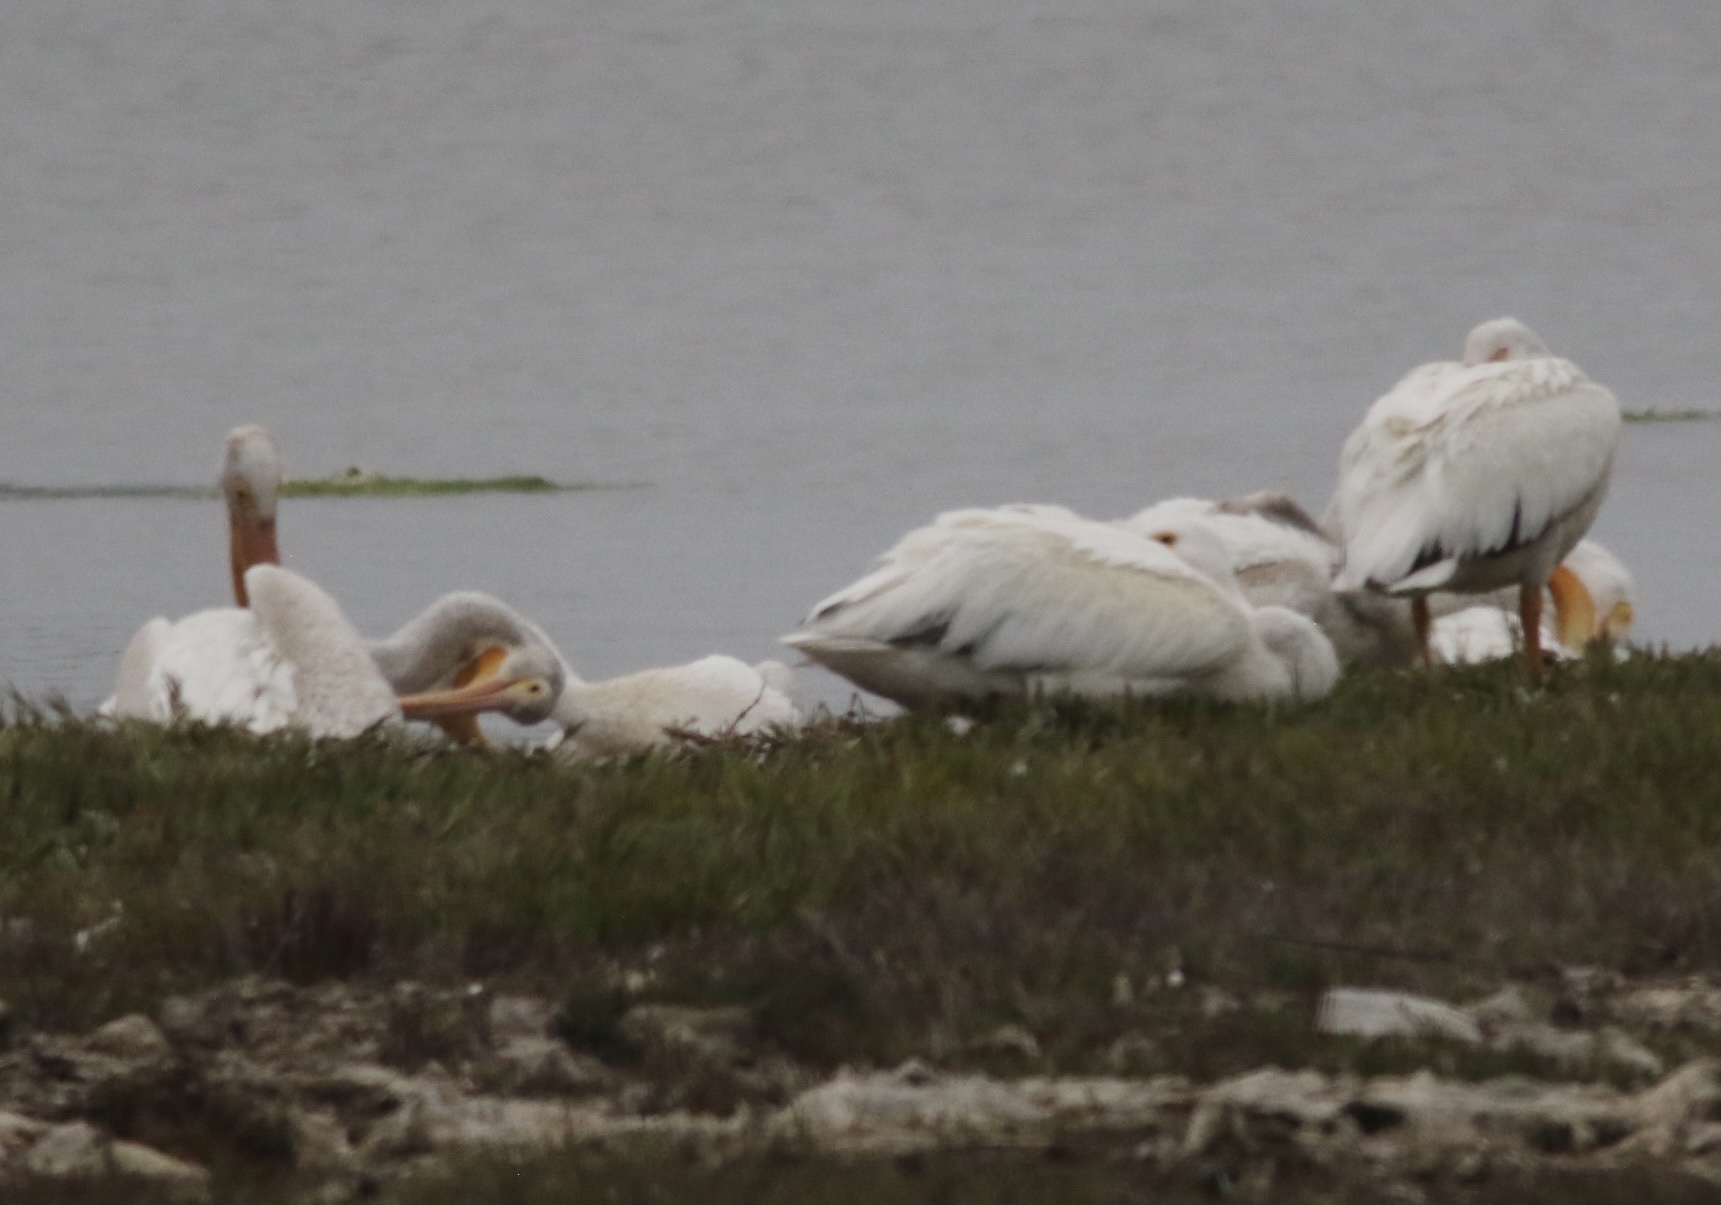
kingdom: Animalia
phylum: Chordata
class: Aves
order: Pelecaniformes
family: Pelecanidae
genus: Pelecanus
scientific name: Pelecanus erythrorhynchos
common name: American white pelican
